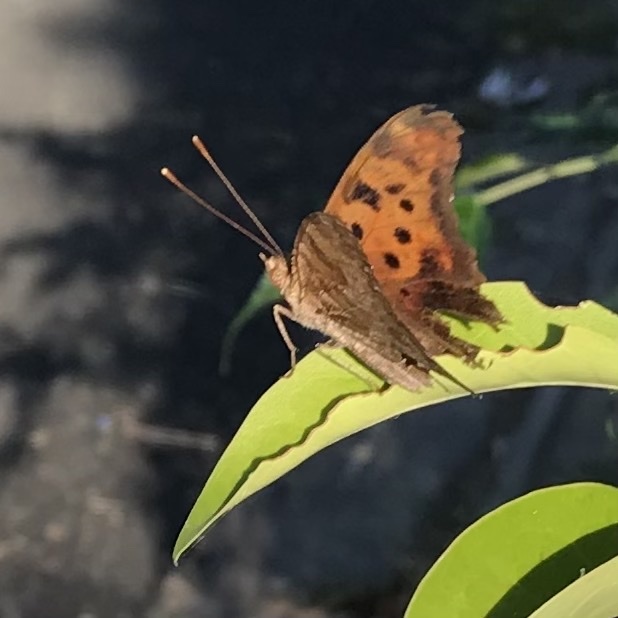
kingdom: Animalia
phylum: Arthropoda
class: Insecta
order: Lepidoptera
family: Nymphalidae
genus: Polygonia
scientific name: Polygonia interrogationis
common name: Question mark
